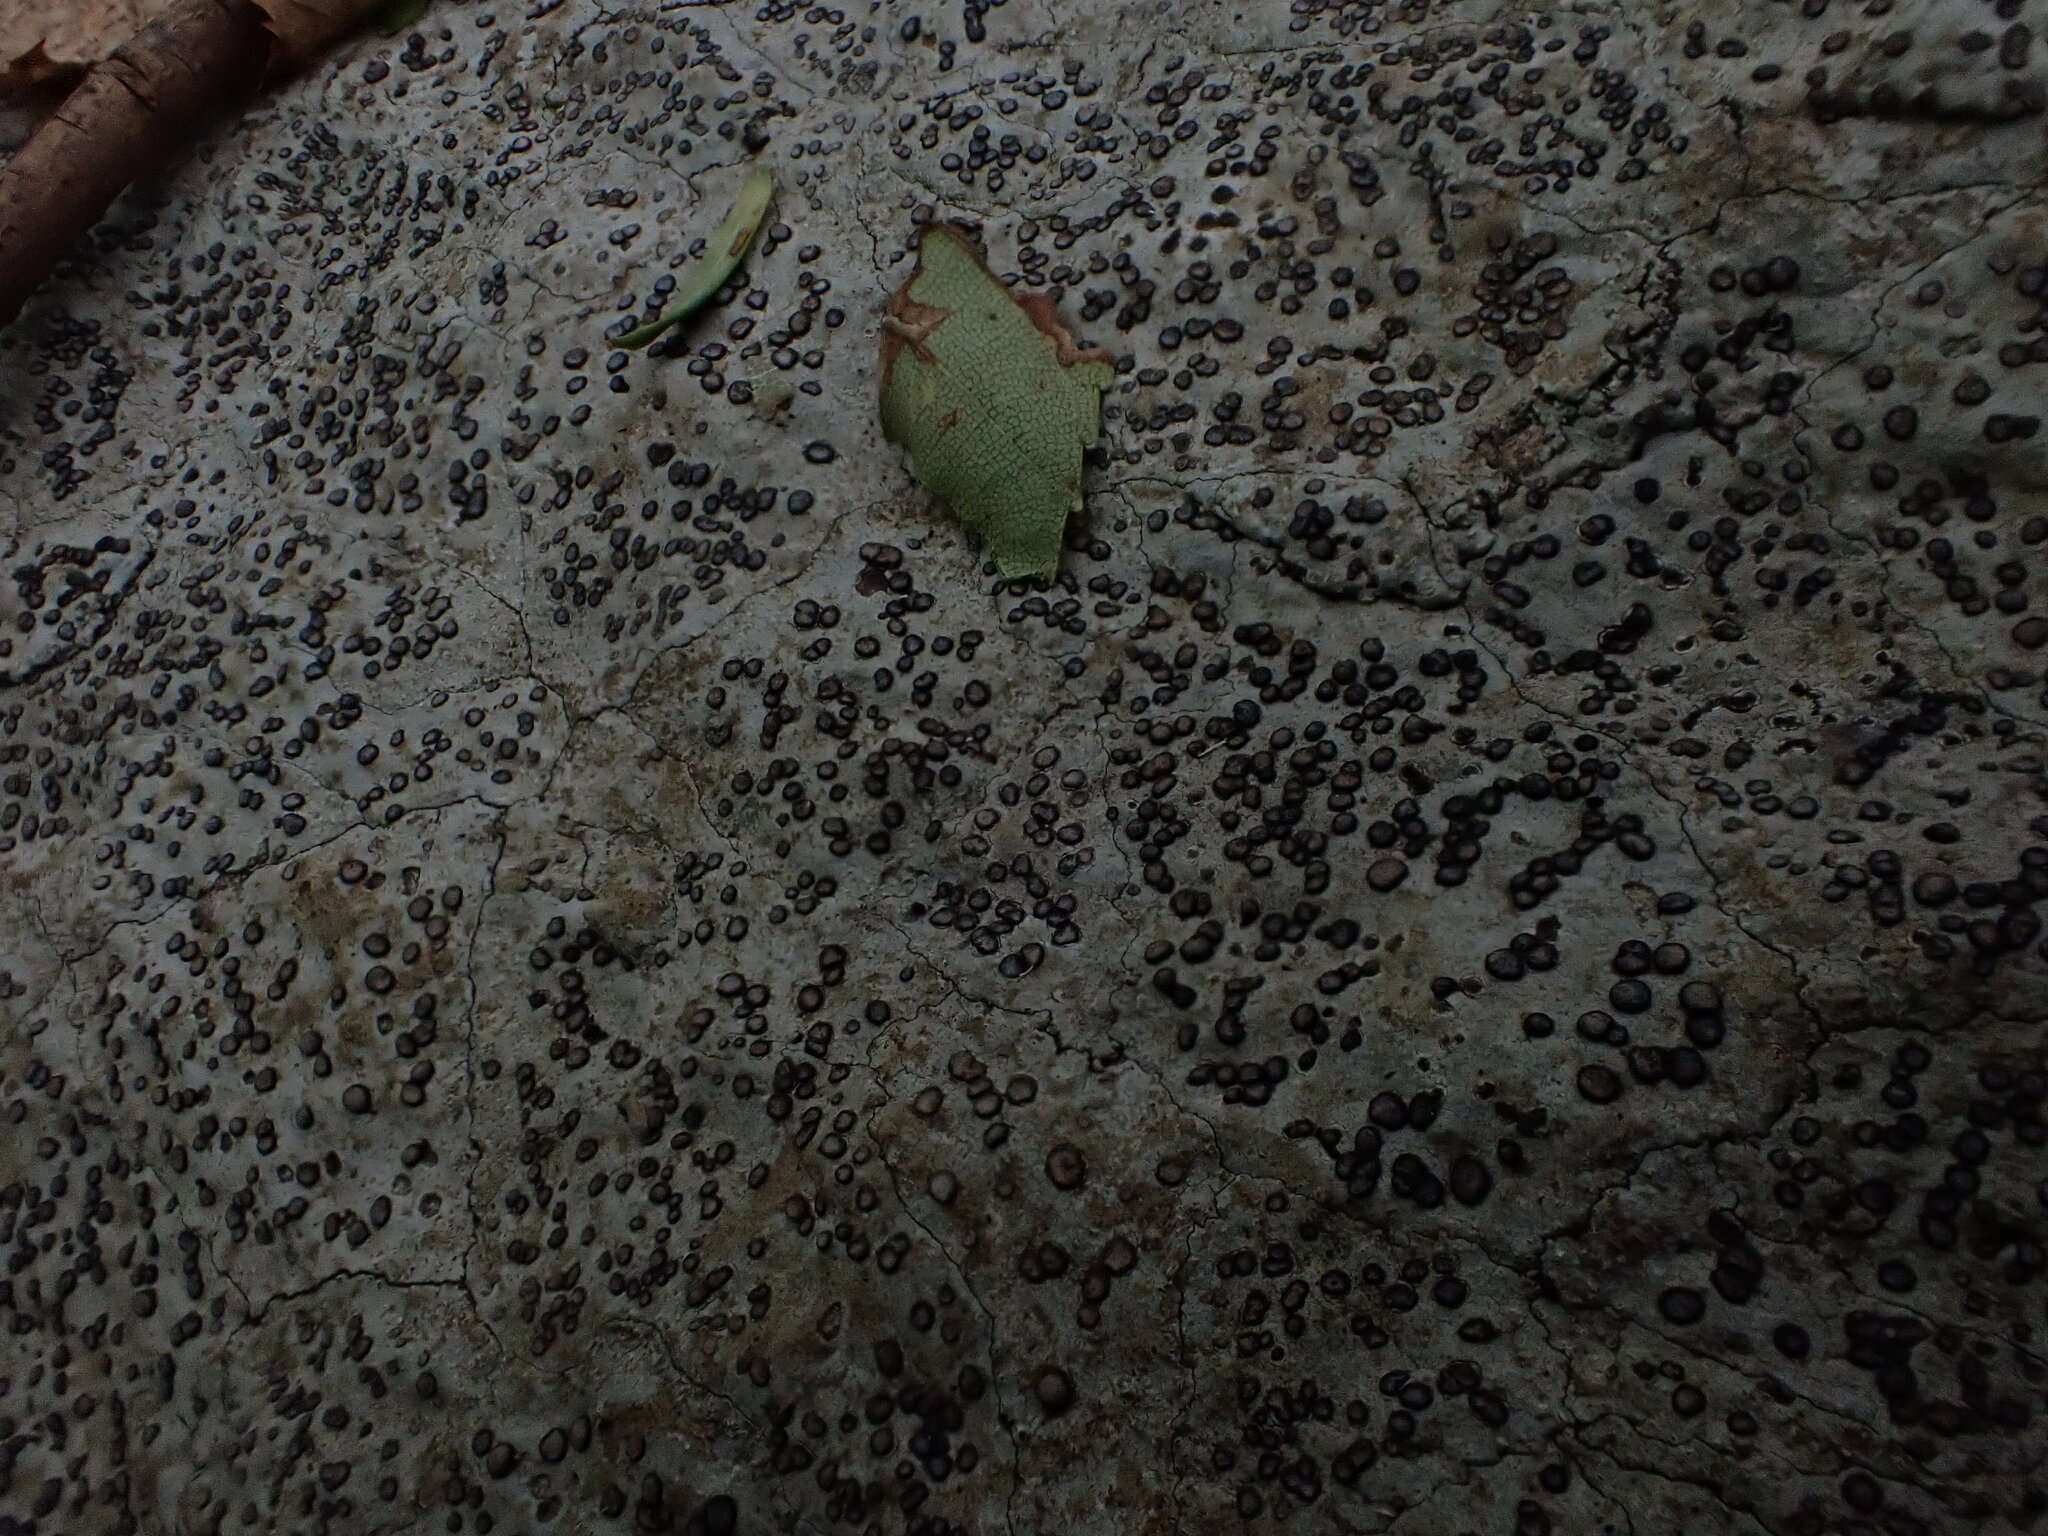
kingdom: Fungi
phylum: Ascomycota
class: Lecanoromycetes
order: Lecideales
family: Lecideaceae
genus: Porpidia
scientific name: Porpidia albocaerulescens
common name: Smokey-eyed boulder lichen
